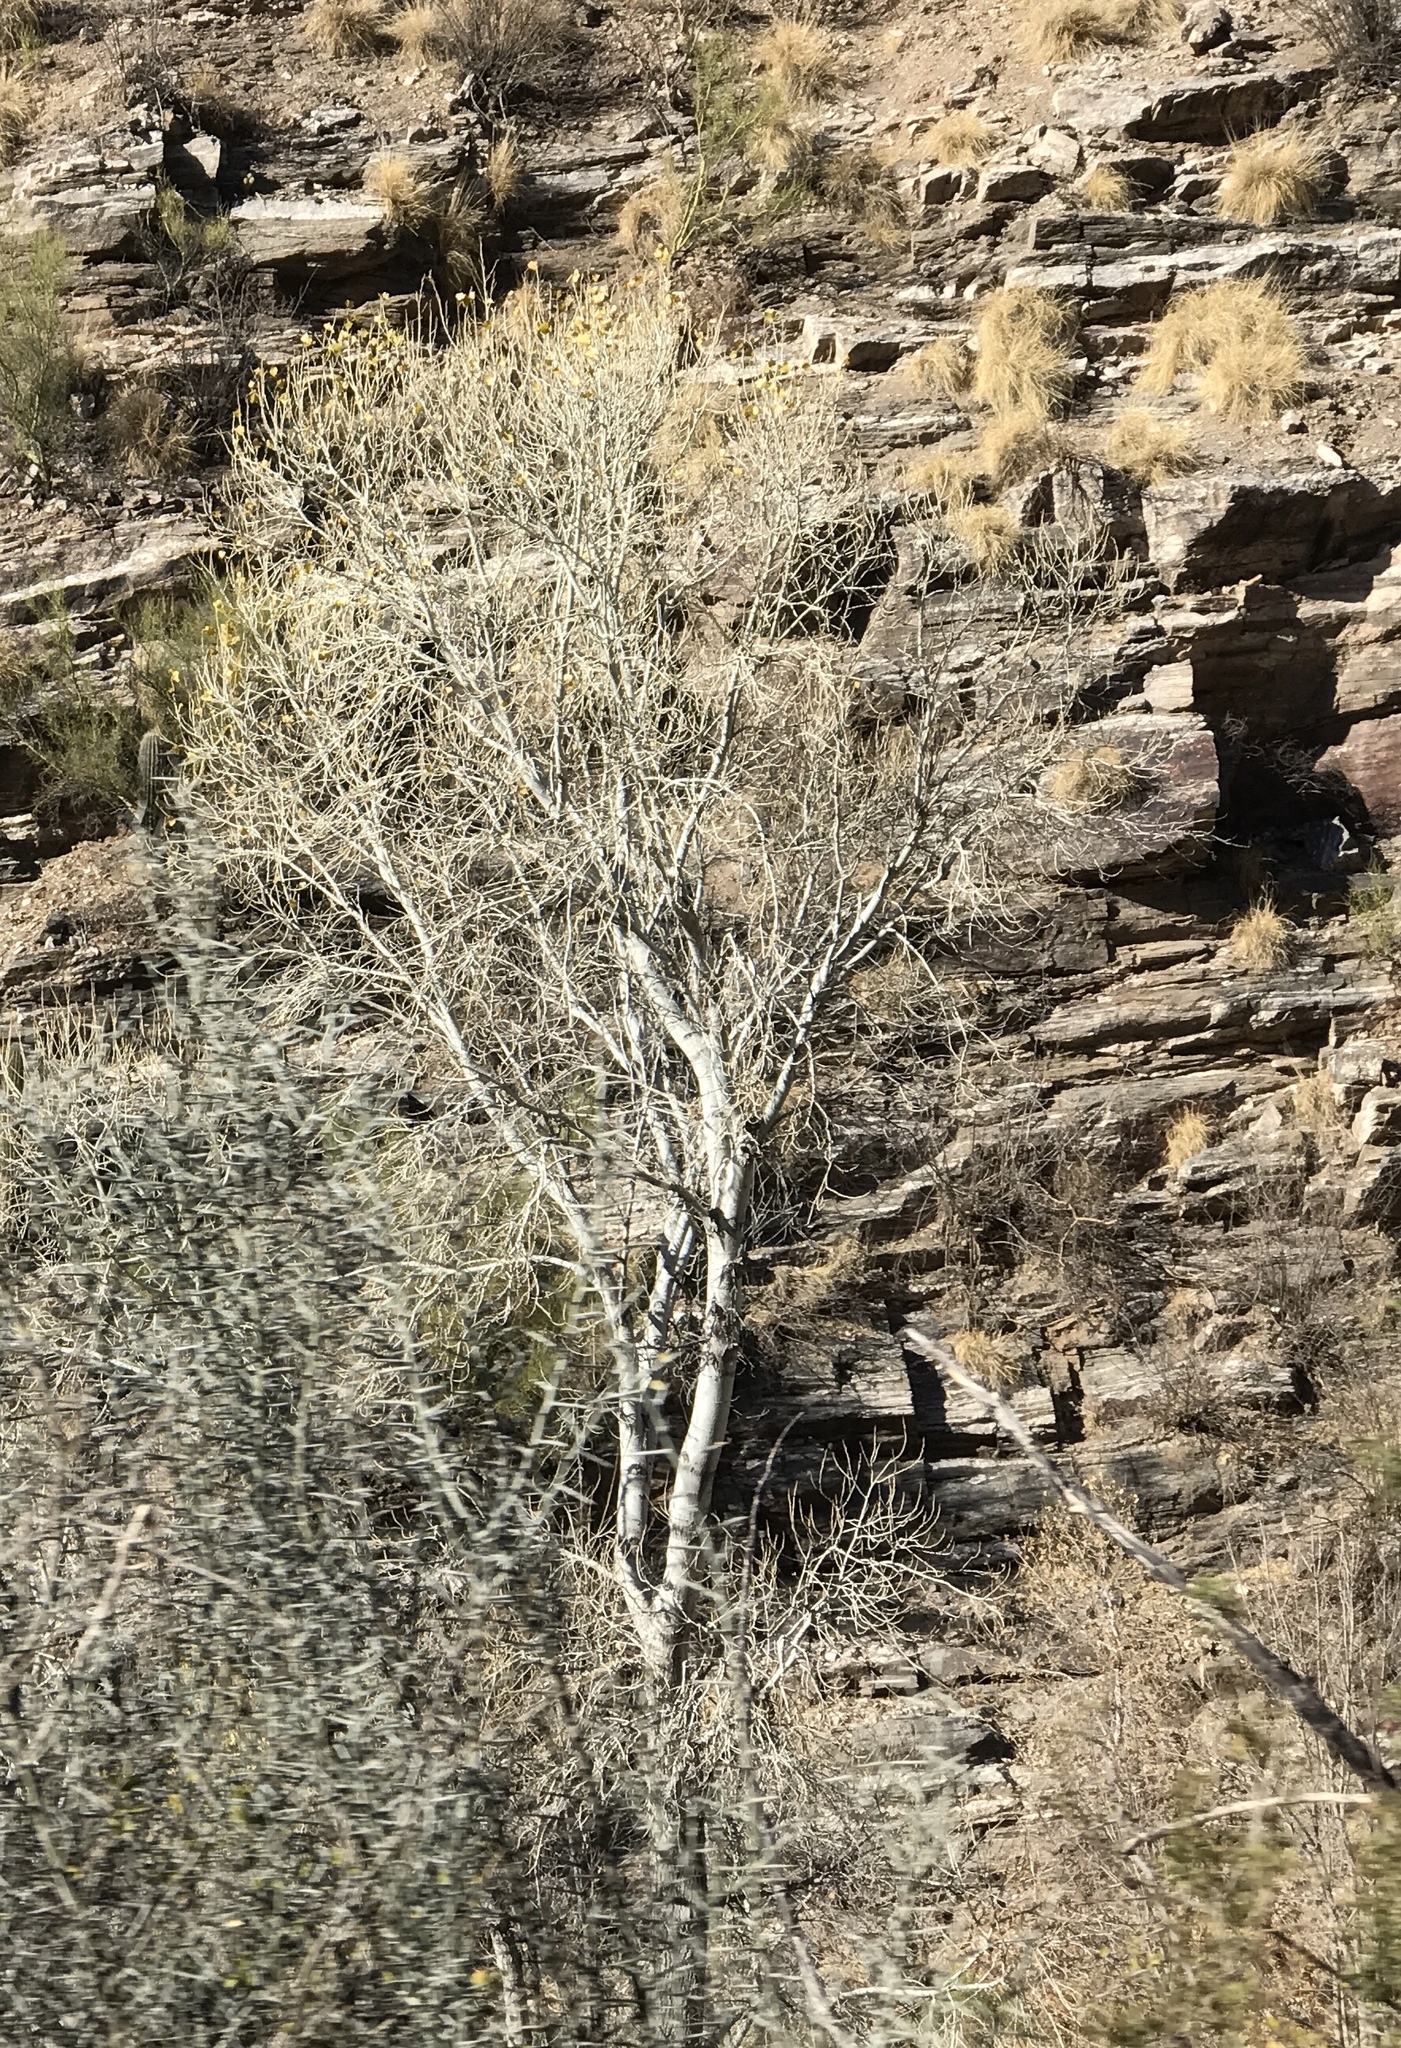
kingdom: Plantae
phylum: Tracheophyta
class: Magnoliopsida
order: Malpighiales
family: Salicaceae
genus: Populus
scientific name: Populus fremontii
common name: Fremont's cottonwood
